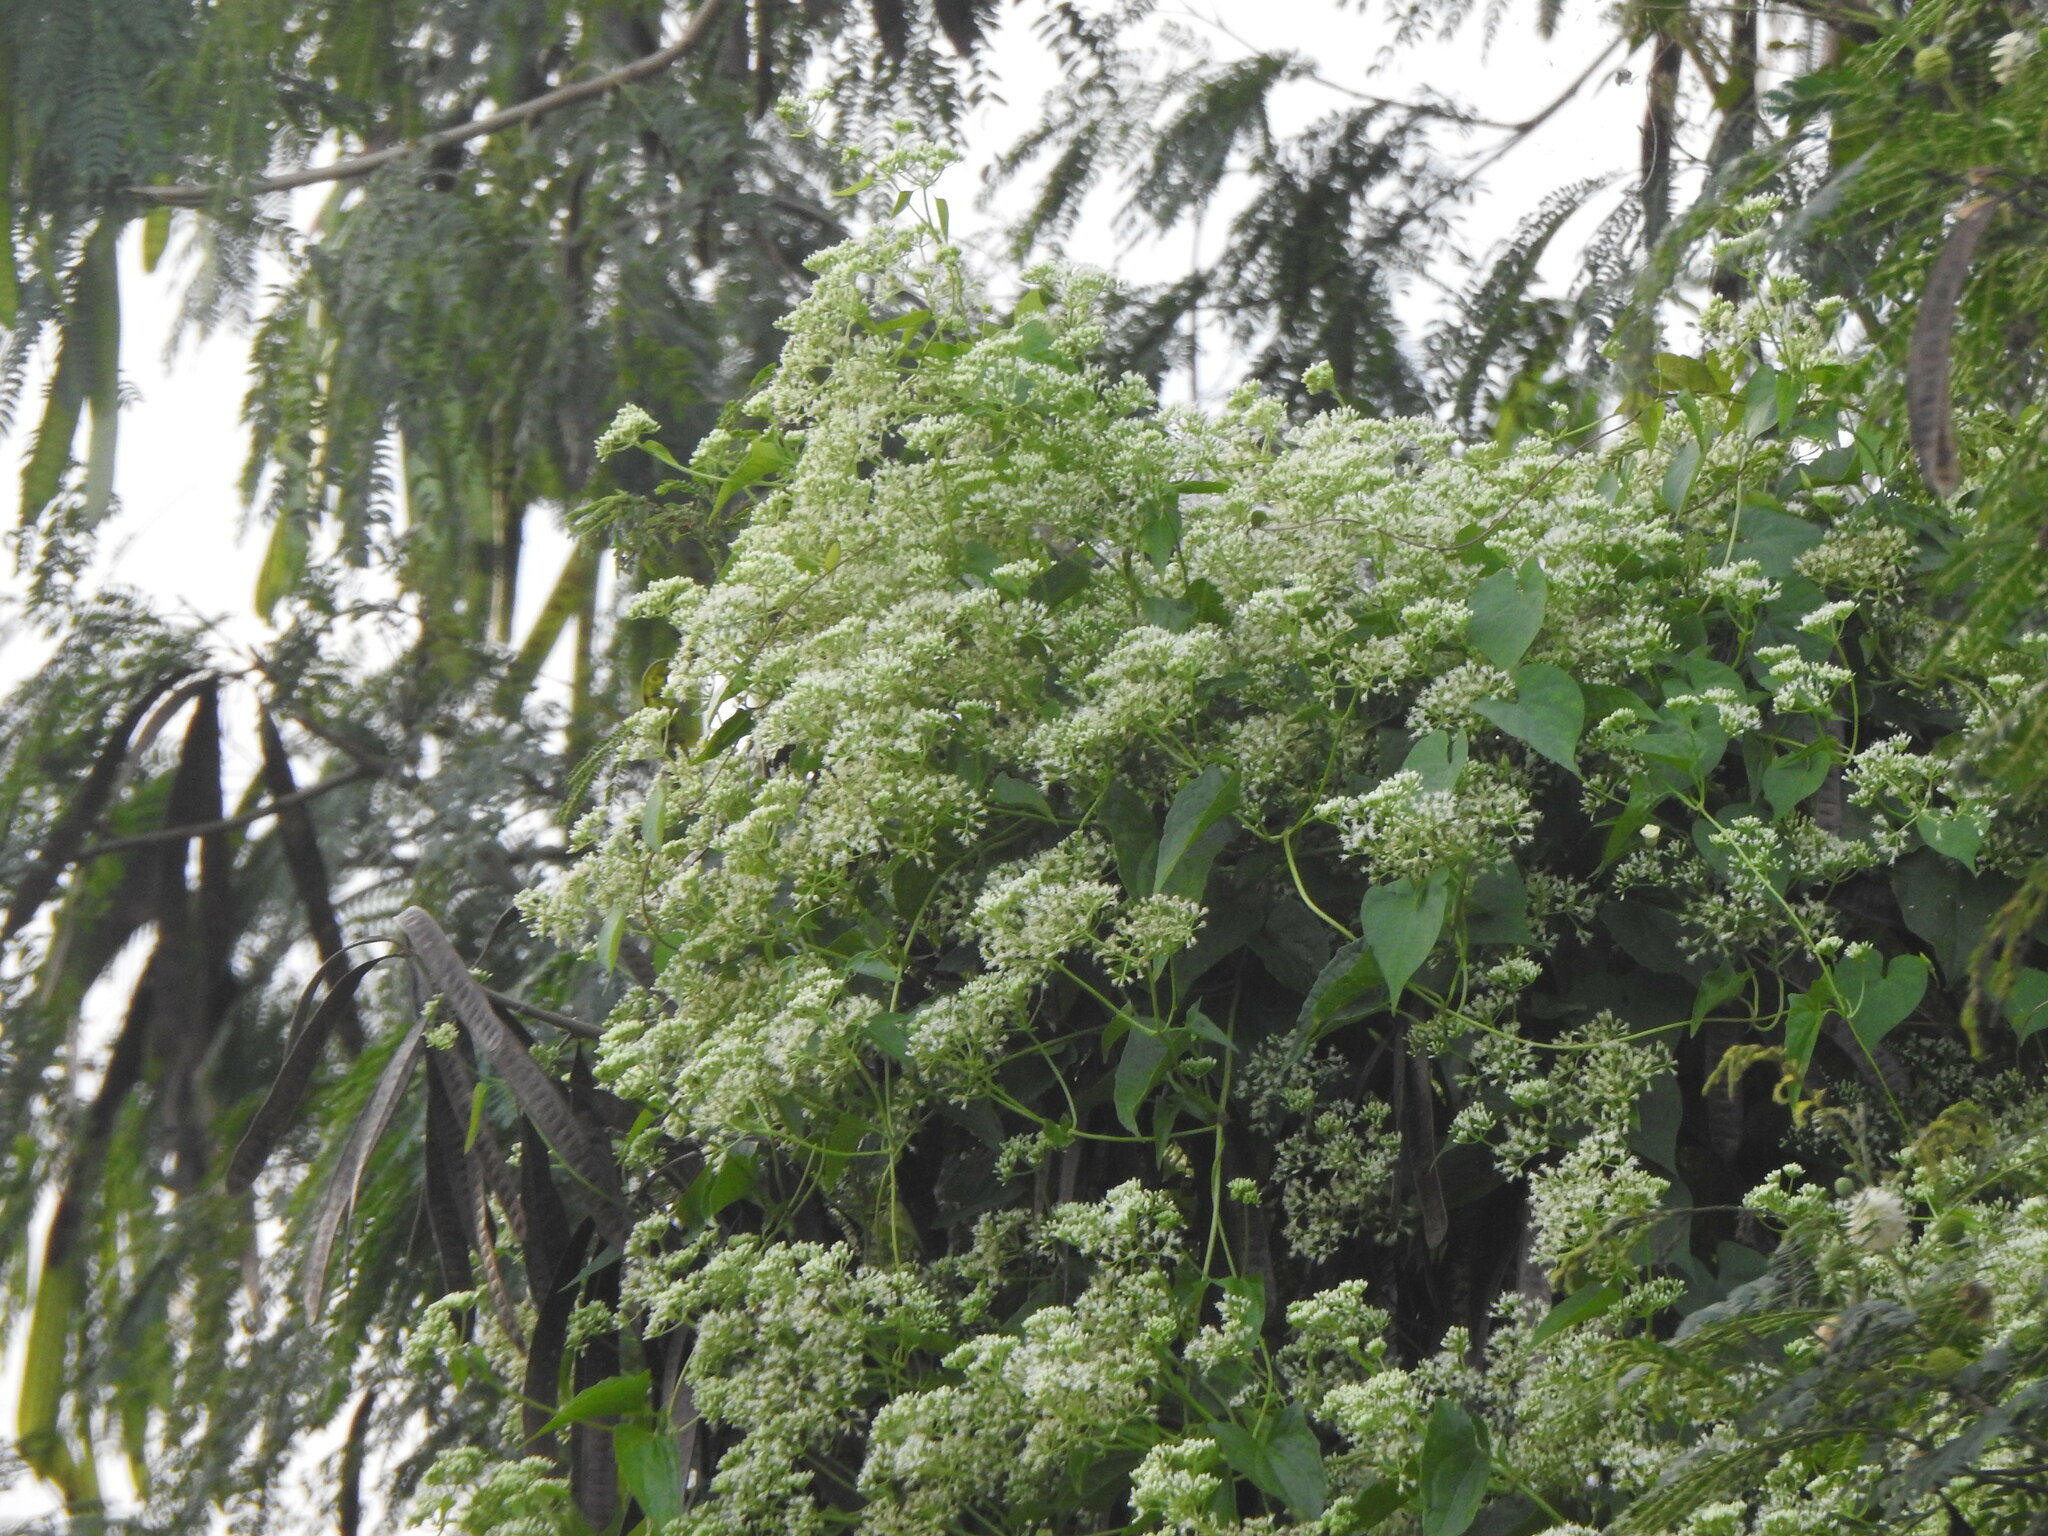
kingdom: Plantae
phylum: Tracheophyta
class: Magnoliopsida
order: Asterales
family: Asteraceae
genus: Mikania
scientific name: Mikania micrantha
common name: Mile-a-minute
